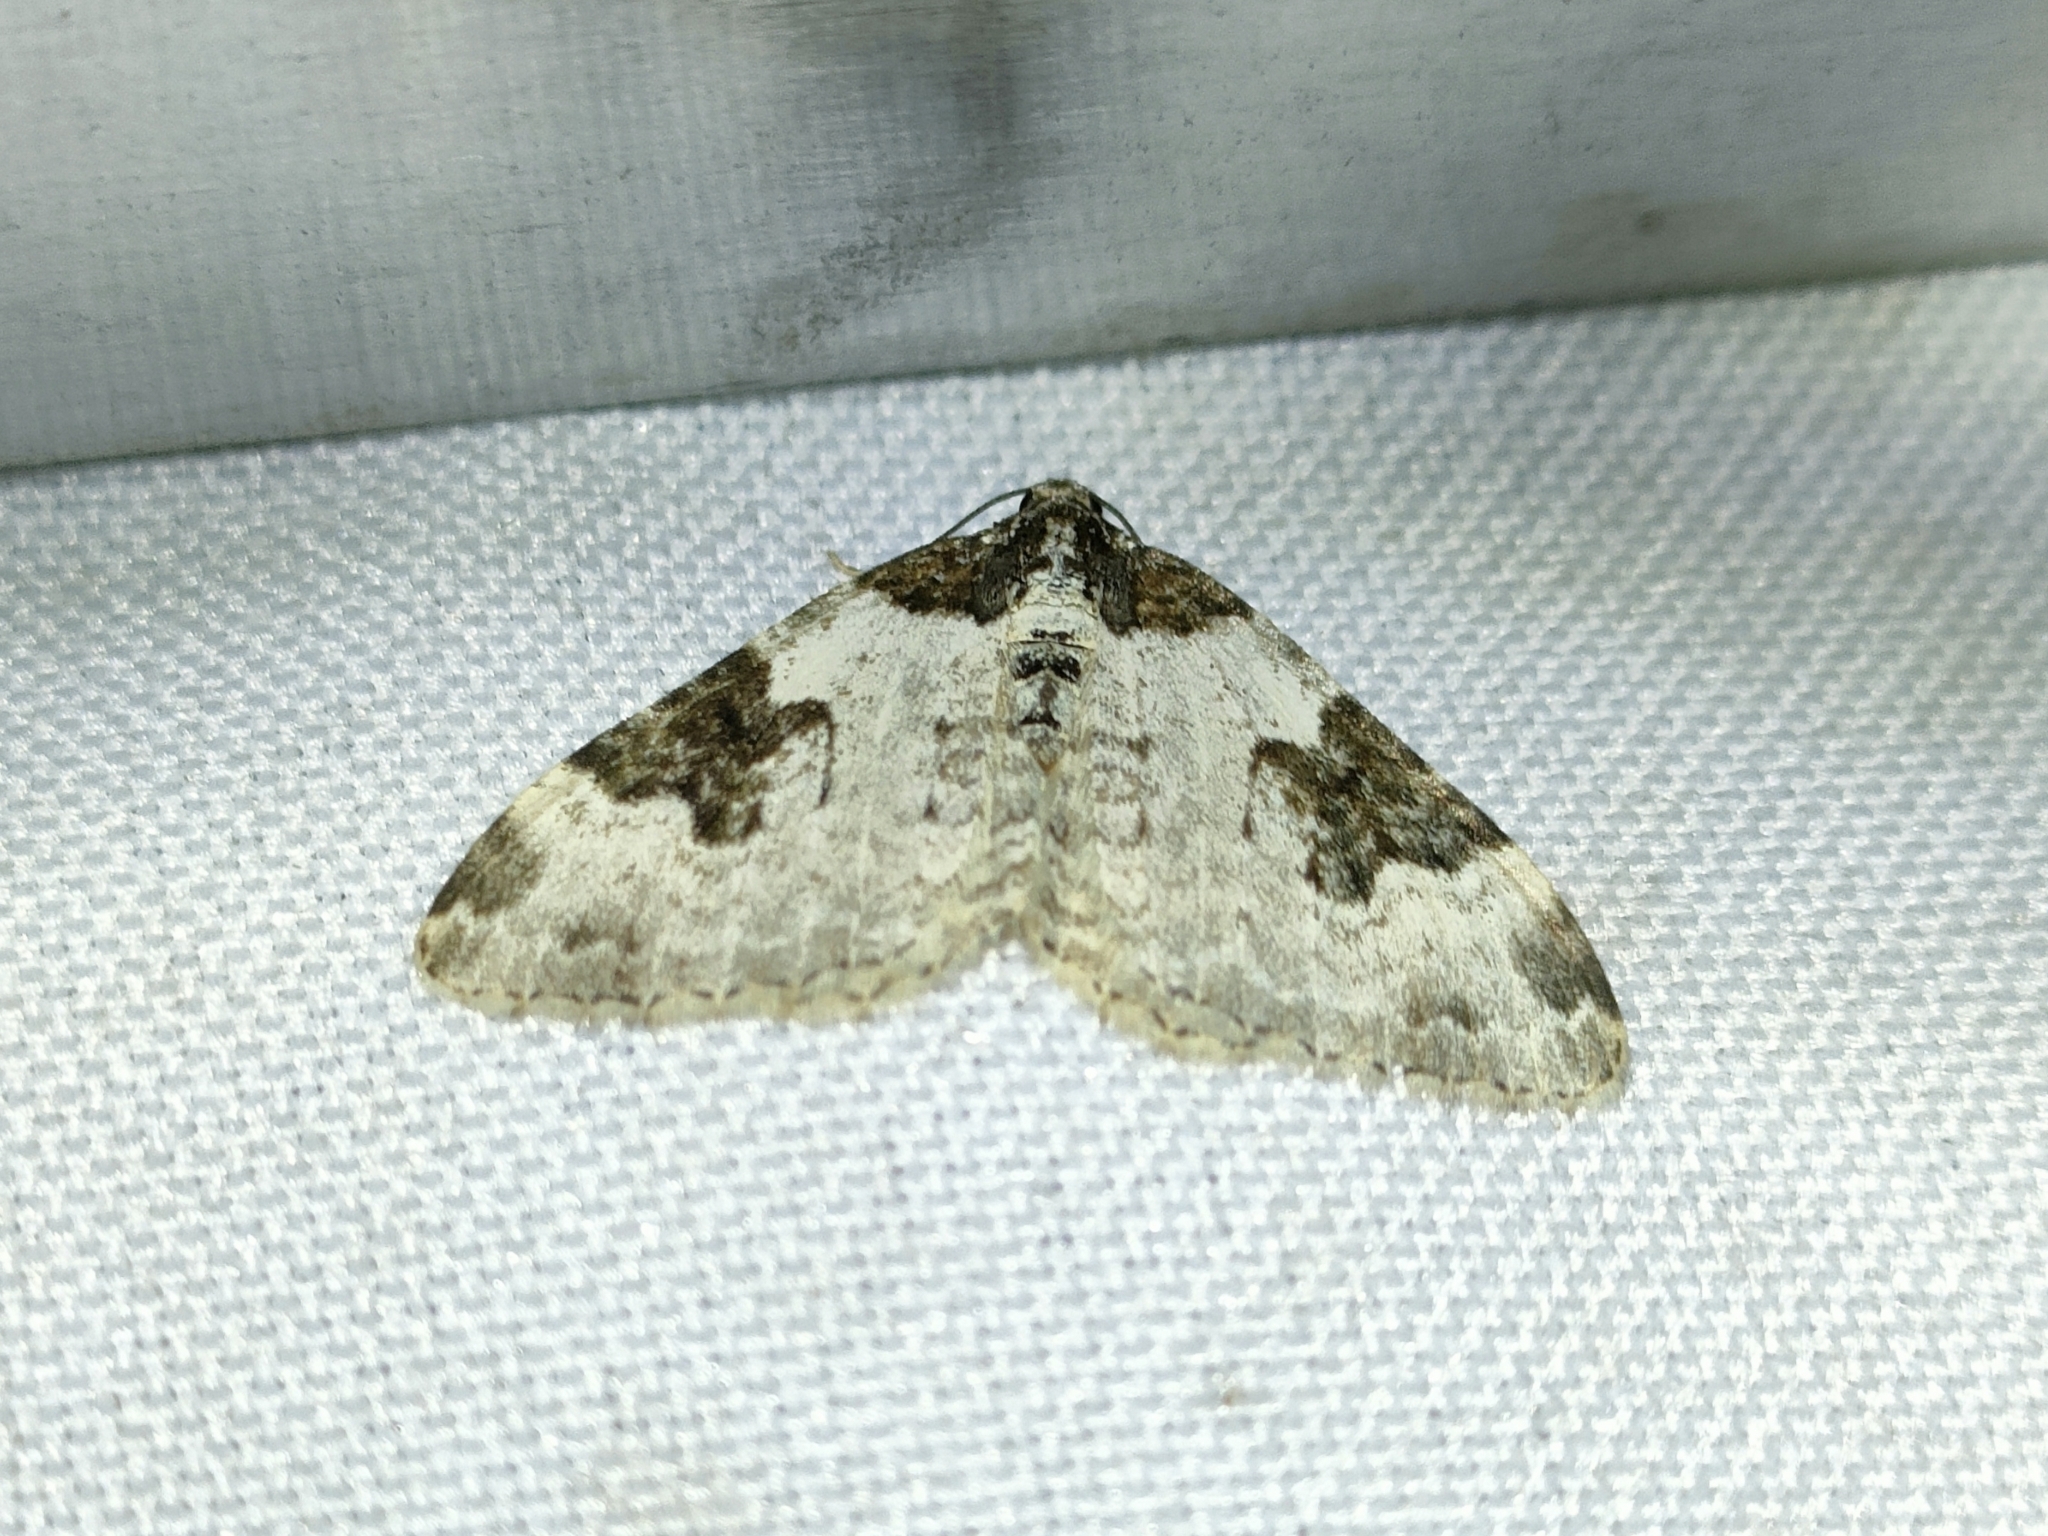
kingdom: Animalia
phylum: Arthropoda
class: Insecta
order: Lepidoptera
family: Geometridae
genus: Xanthorhoe
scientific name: Xanthorhoe fluctuata
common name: Garden carpet
